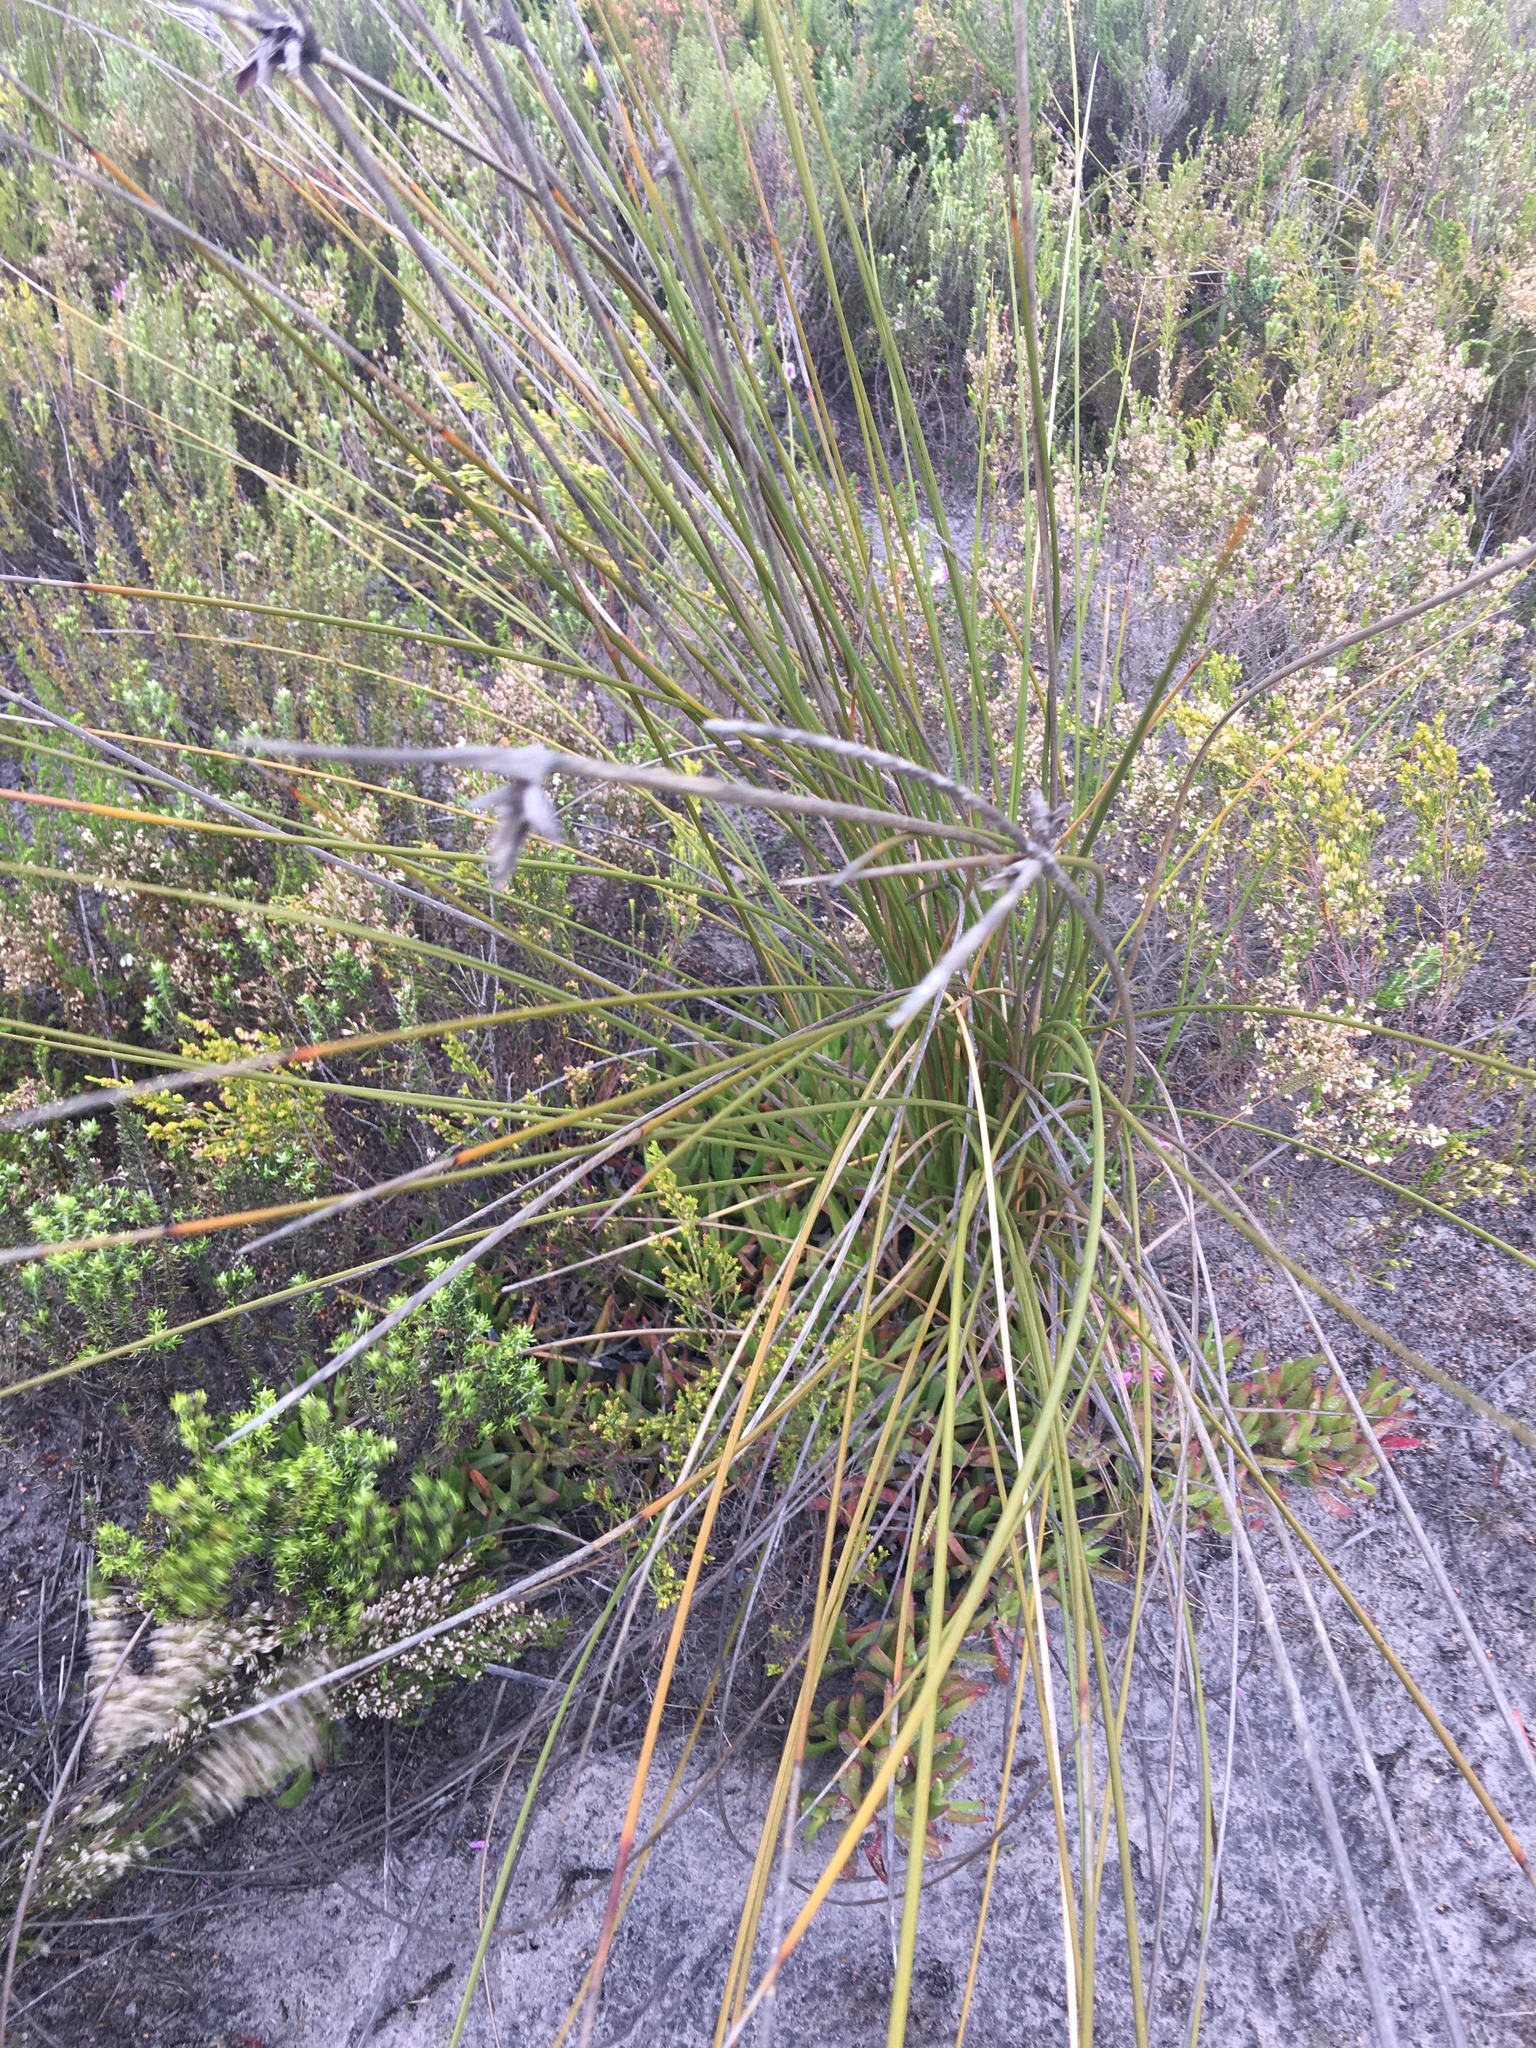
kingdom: Plantae
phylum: Tracheophyta
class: Liliopsida
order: Asparagales
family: Iridaceae
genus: Bobartia
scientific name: Bobartia longicyma
